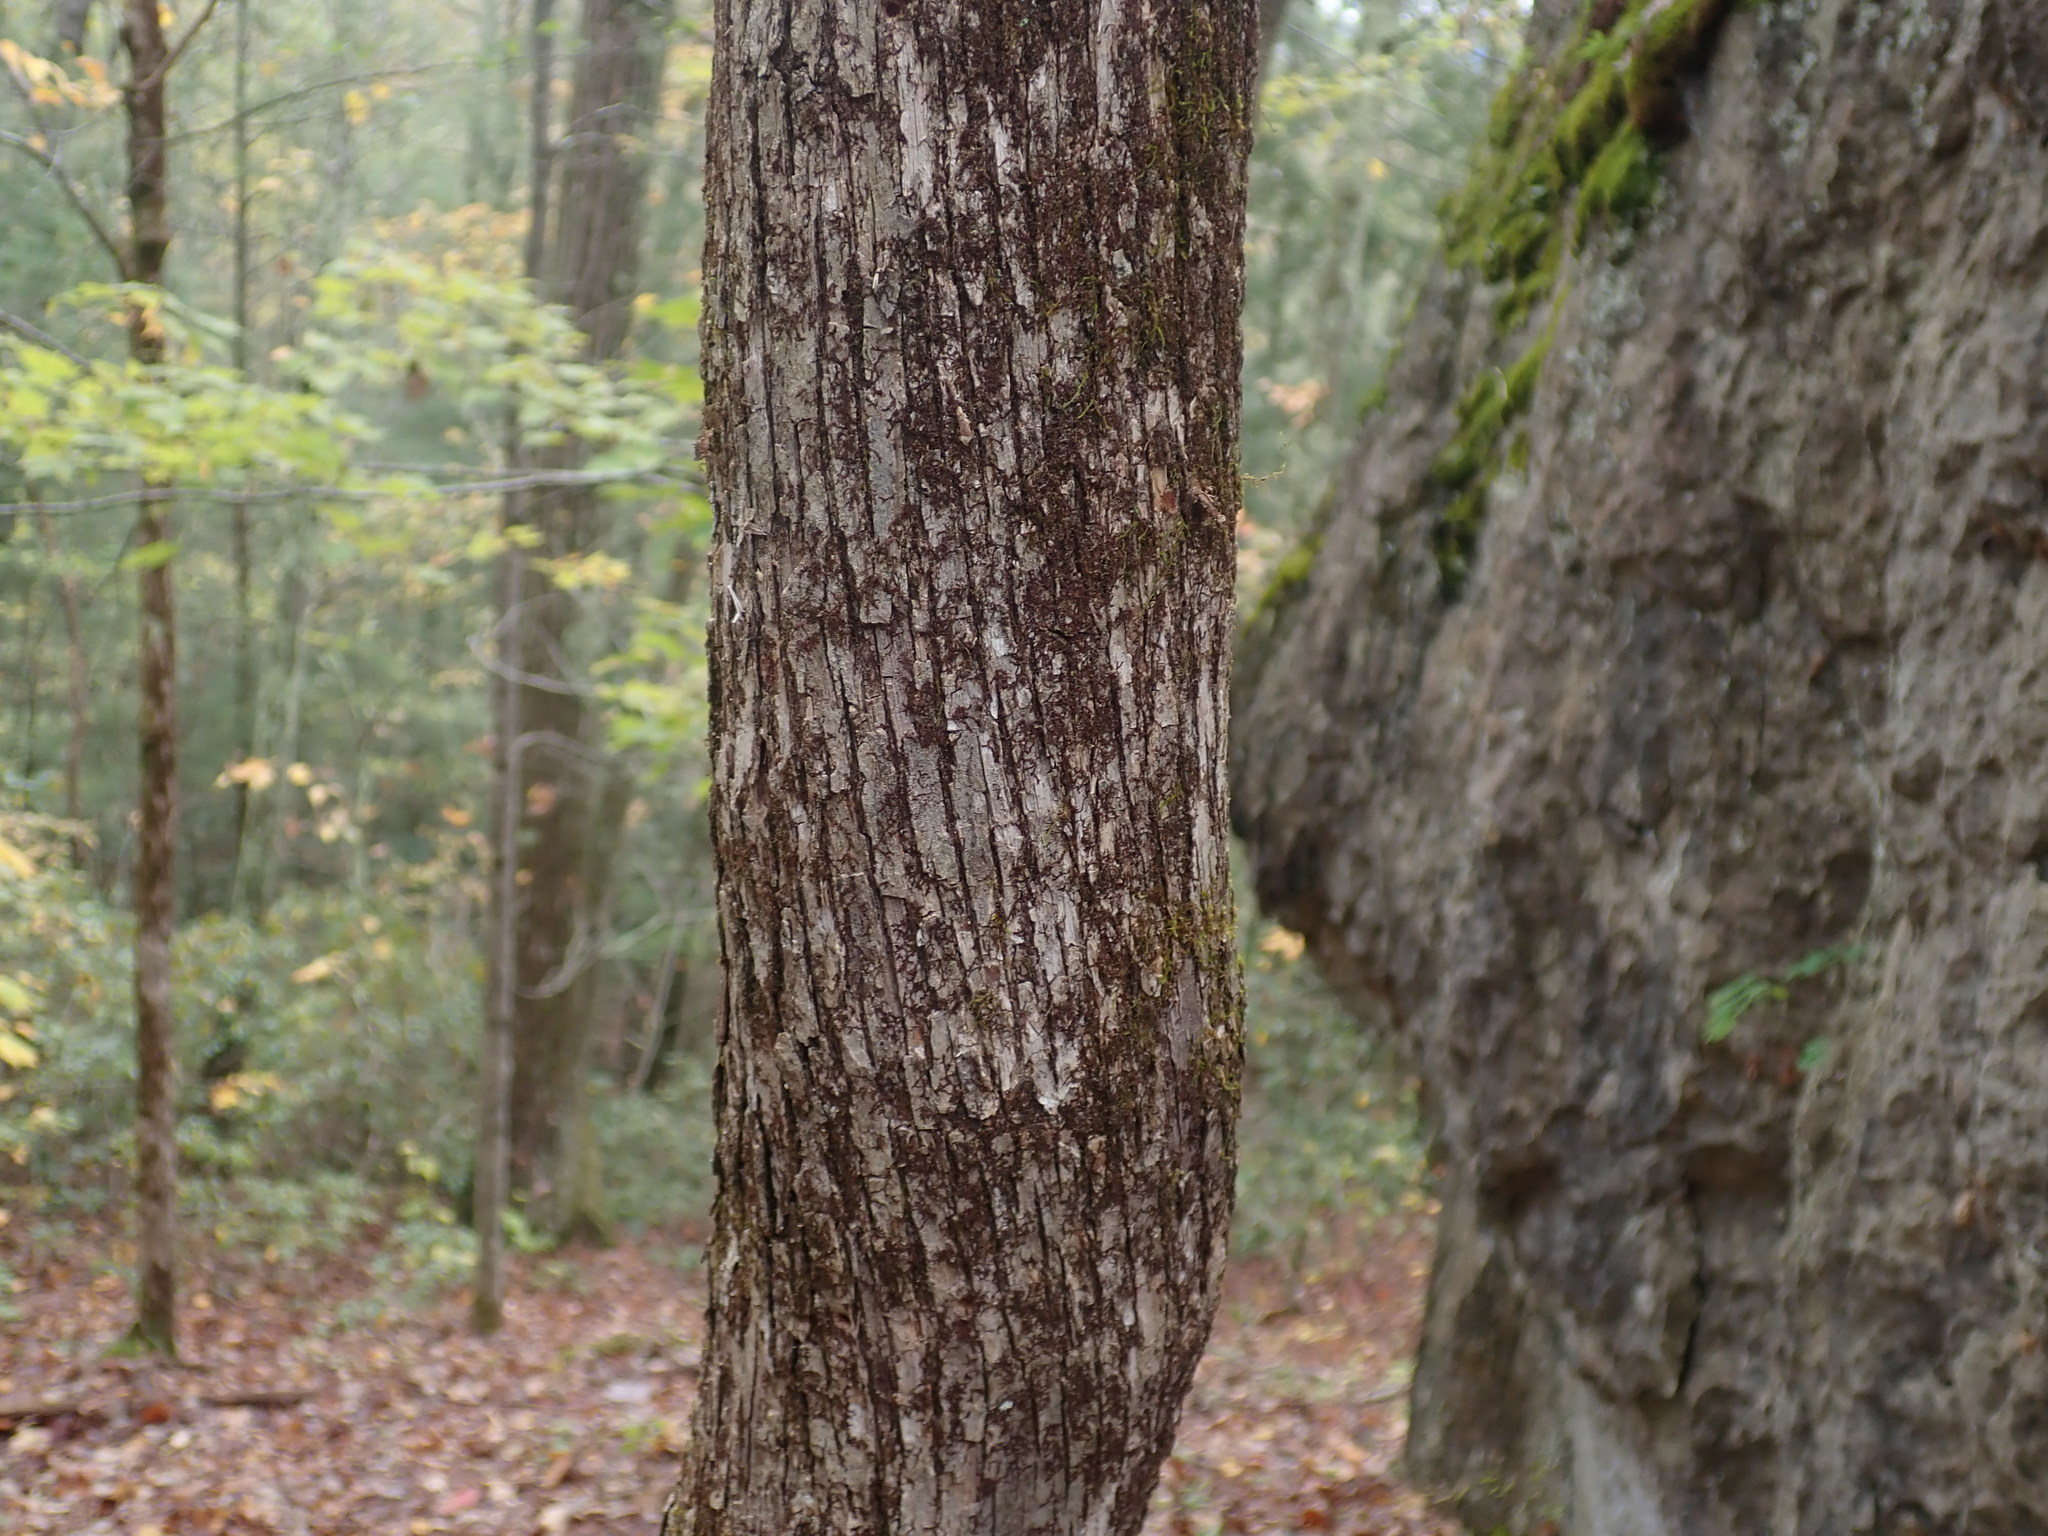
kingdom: Plantae
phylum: Tracheophyta
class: Magnoliopsida
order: Fagales
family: Betulaceae
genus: Ostrya
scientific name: Ostrya virginiana
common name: Ironwood
